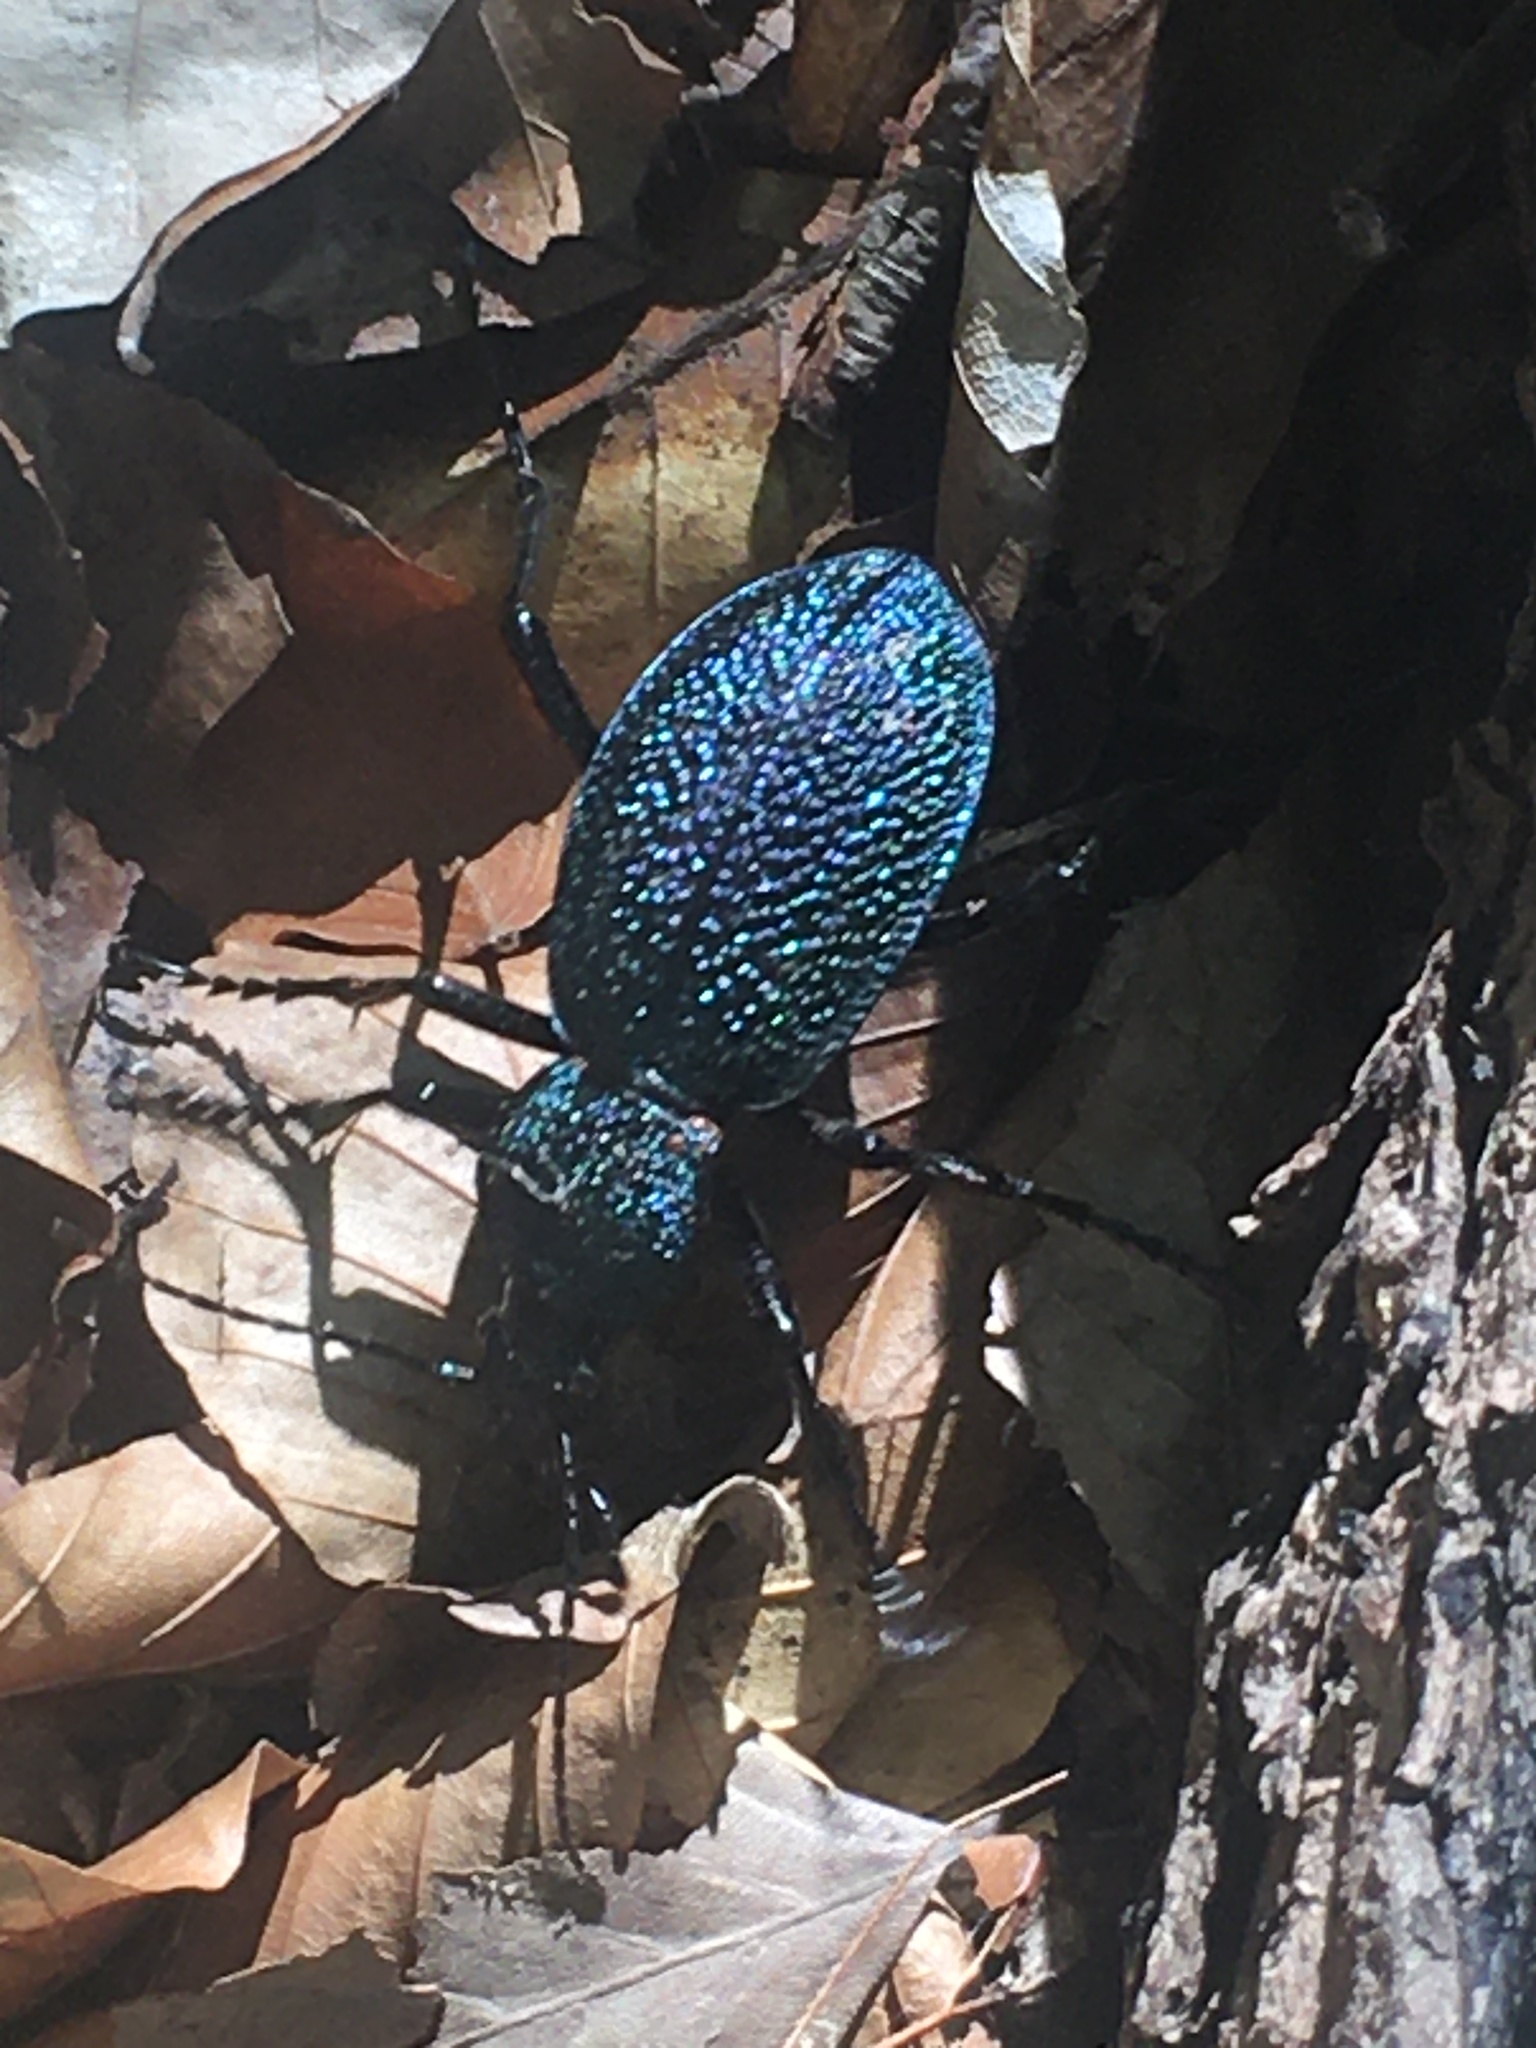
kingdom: Animalia
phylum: Arthropoda
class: Insecta
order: Coleoptera
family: Carabidae
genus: Carabus
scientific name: Carabus scabrosus
